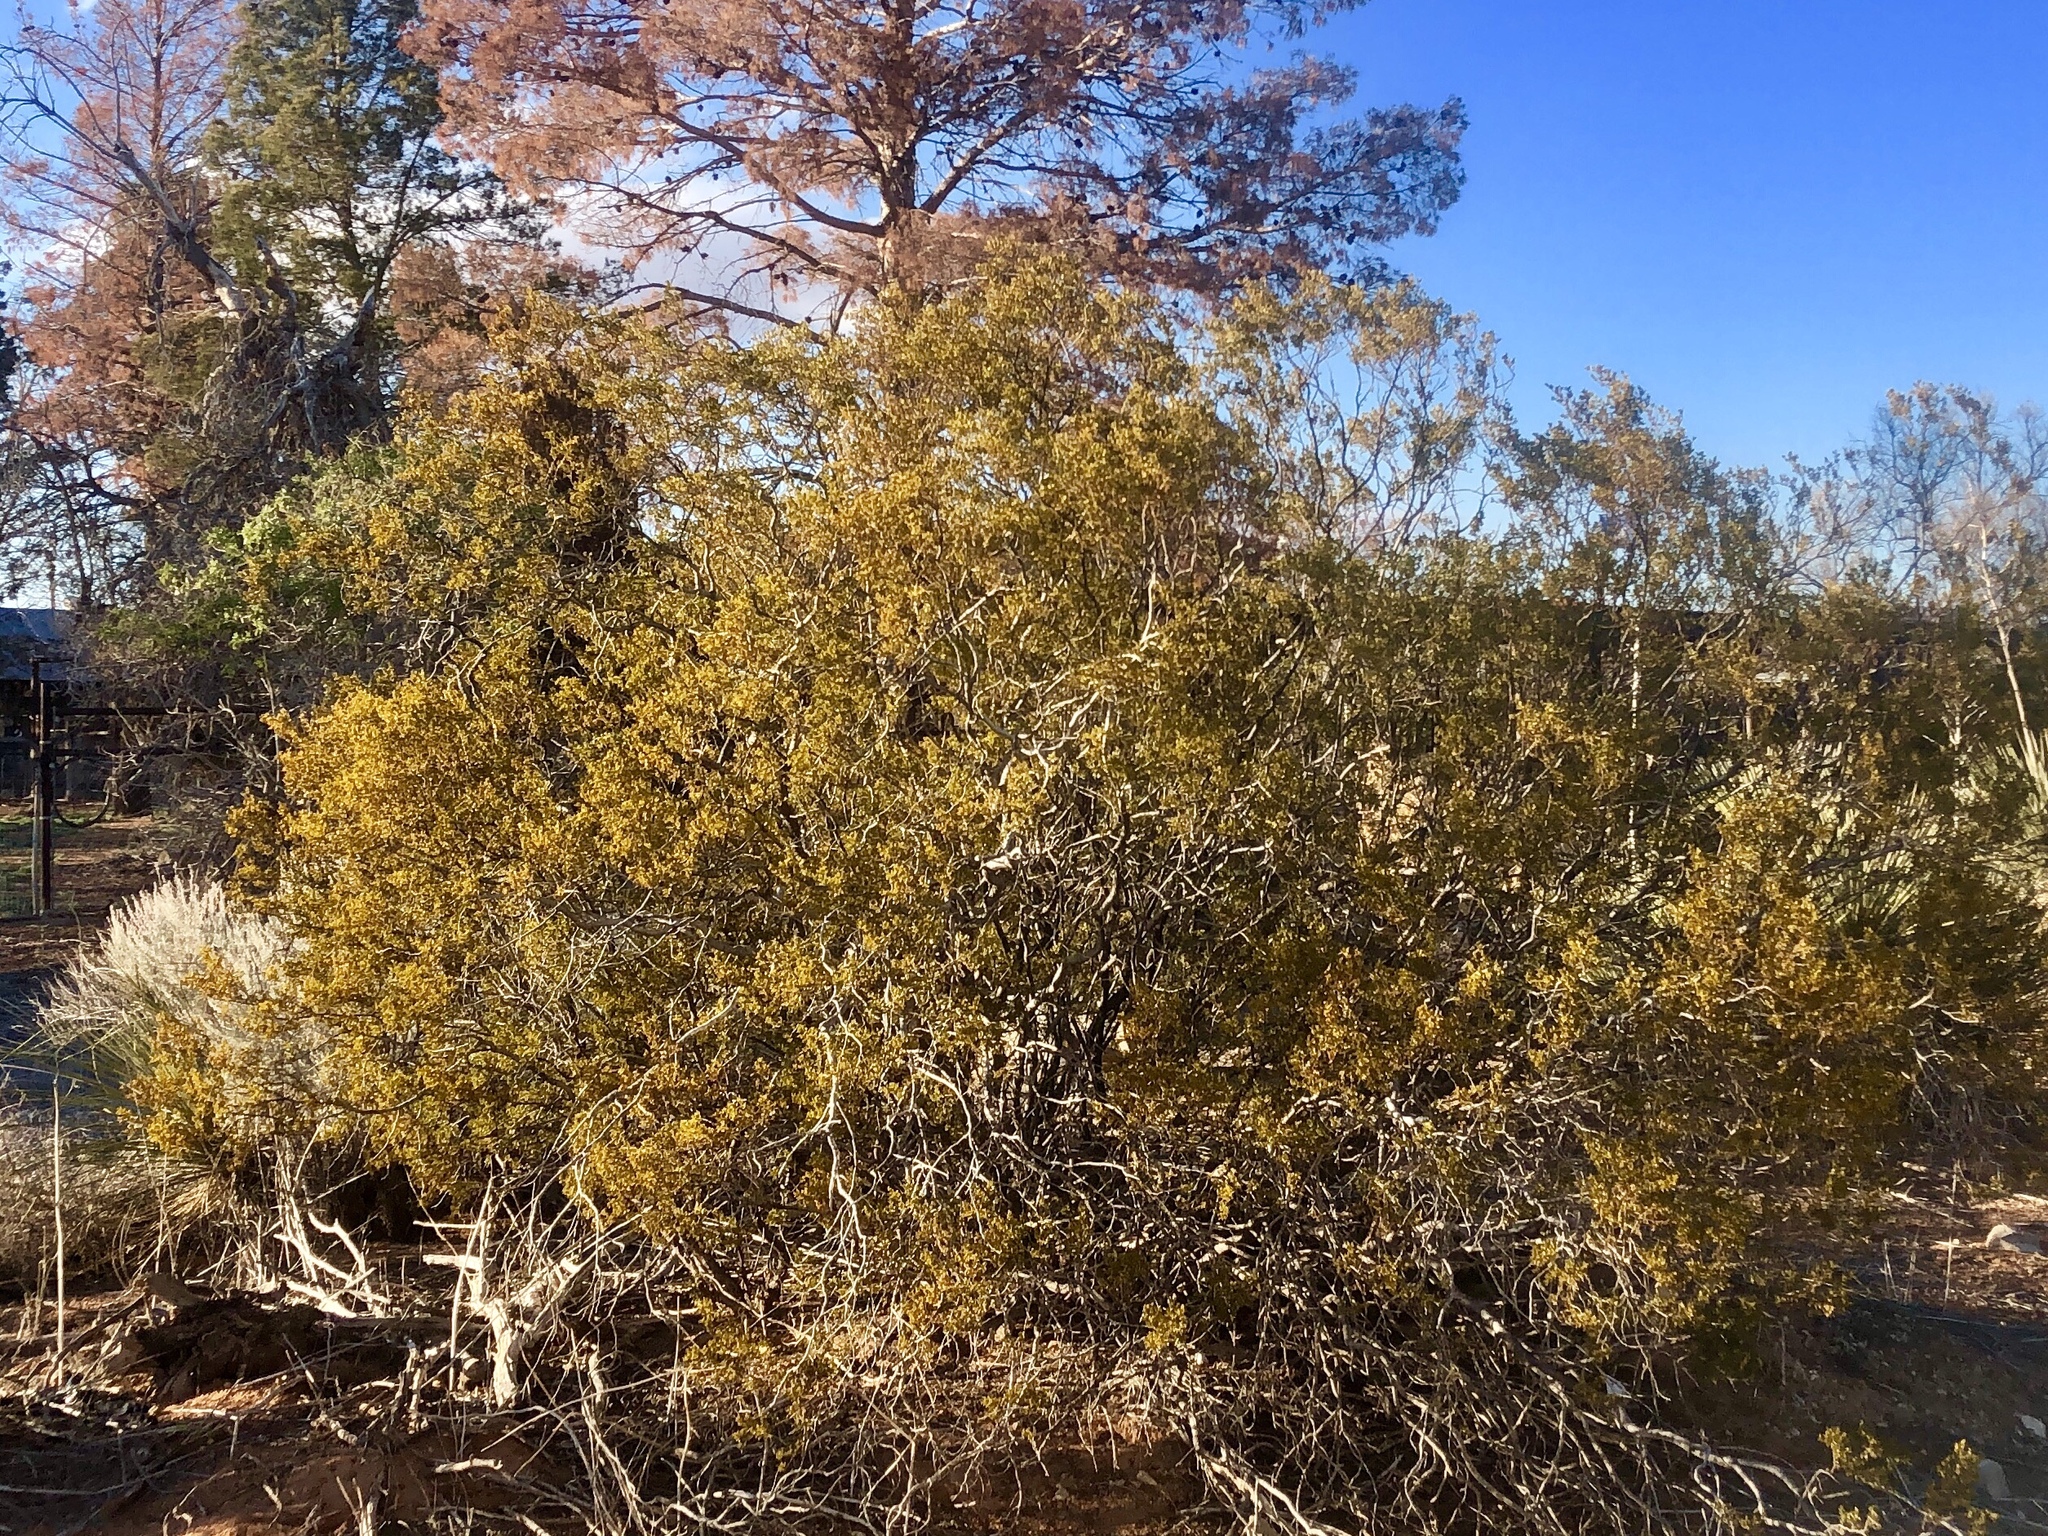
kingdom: Plantae
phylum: Tracheophyta
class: Magnoliopsida
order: Zygophyllales
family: Zygophyllaceae
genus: Larrea
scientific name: Larrea tridentata
